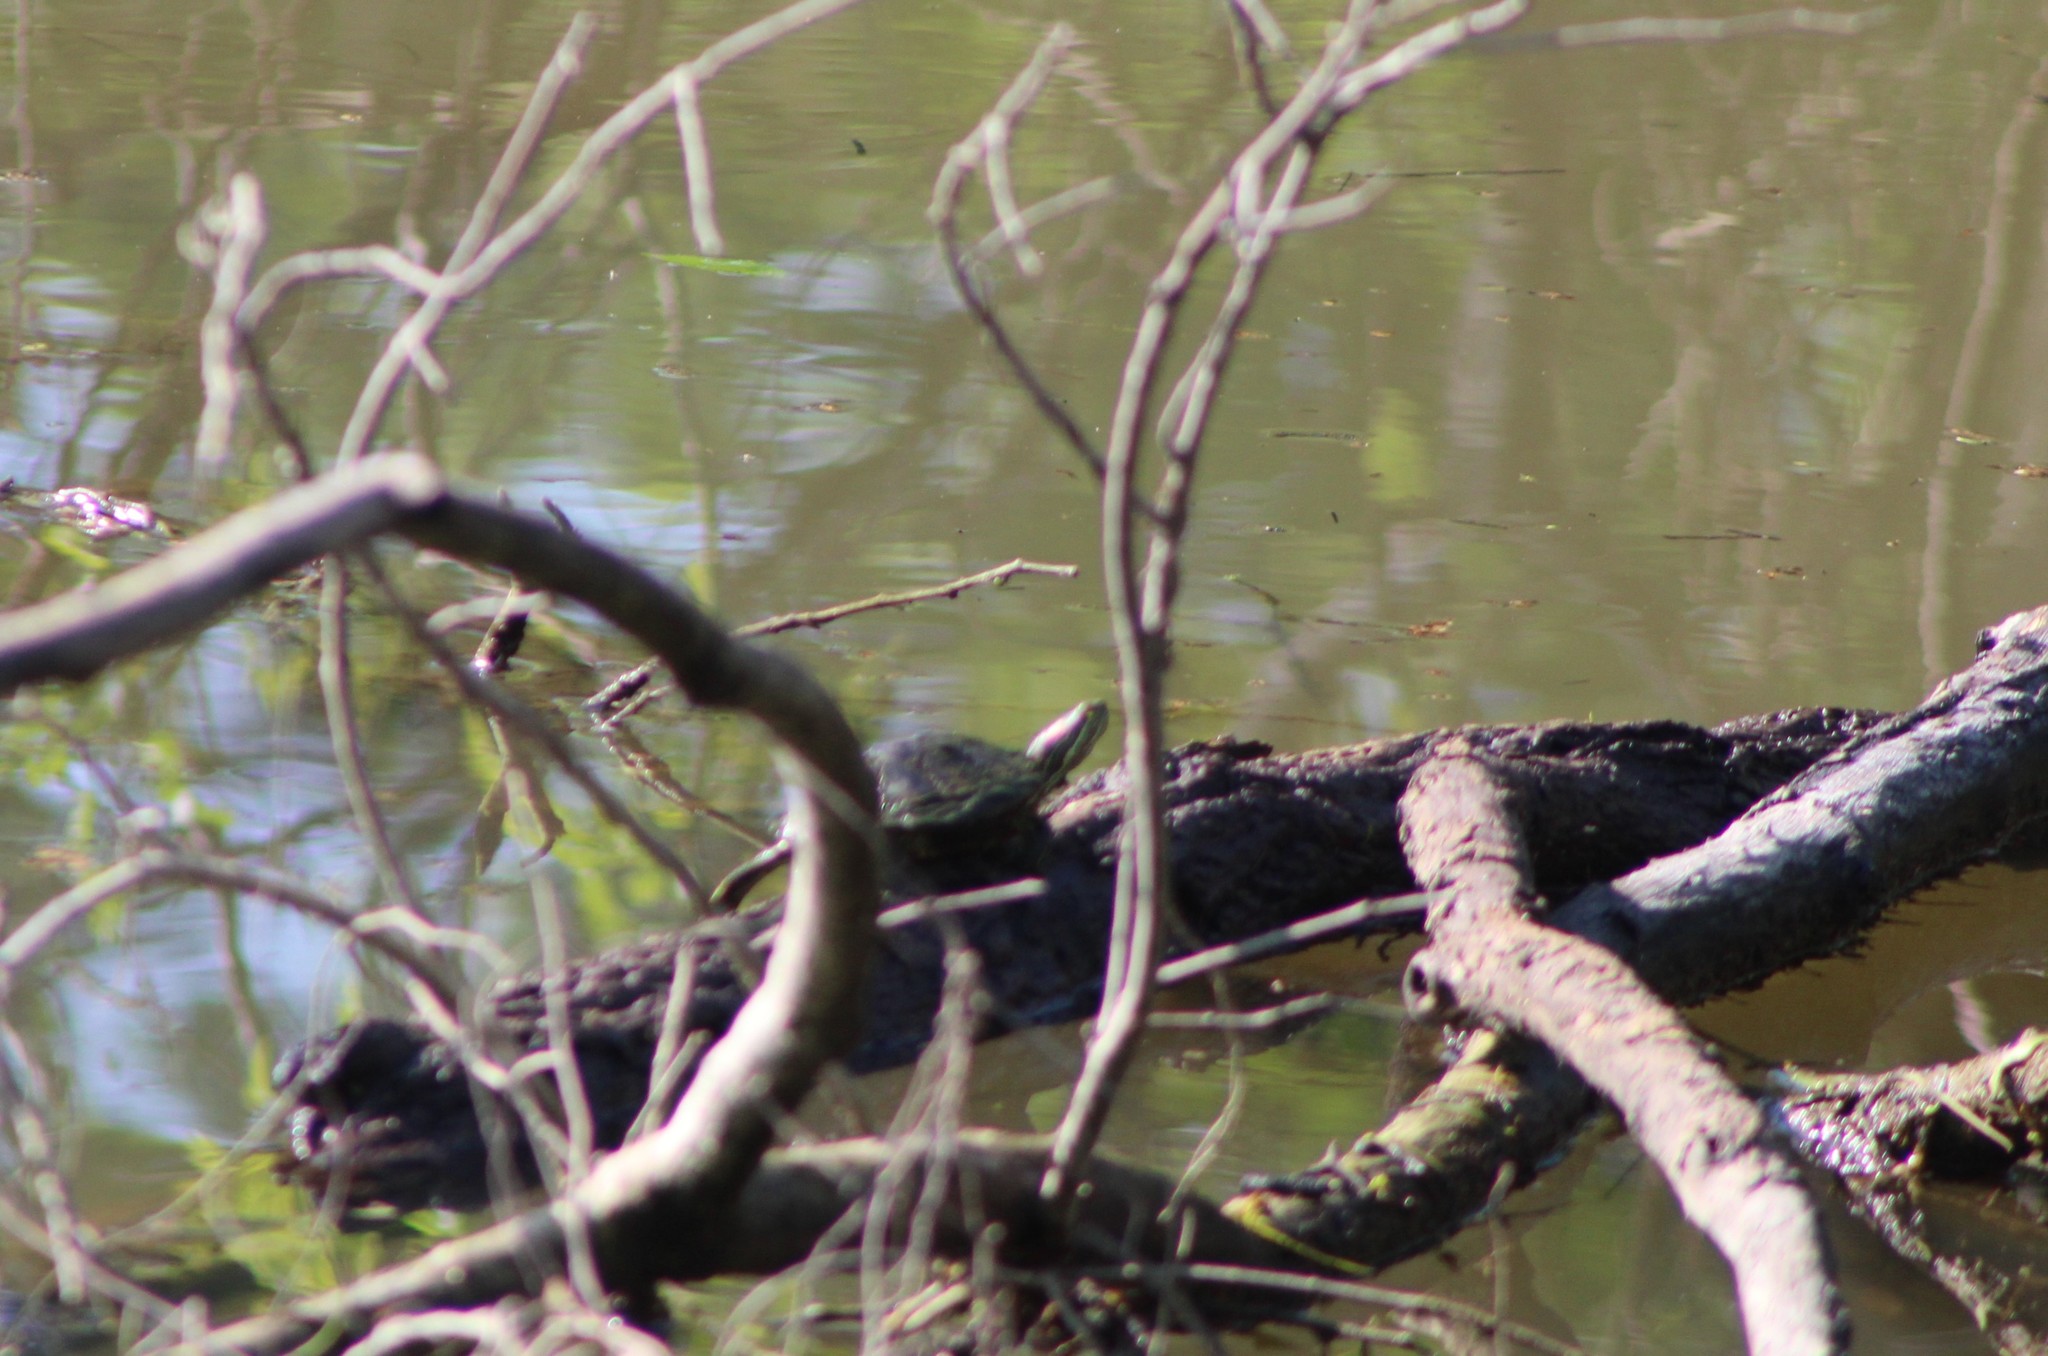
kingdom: Animalia
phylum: Chordata
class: Testudines
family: Emydidae
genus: Trachemys
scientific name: Trachemys scripta
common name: Slider
